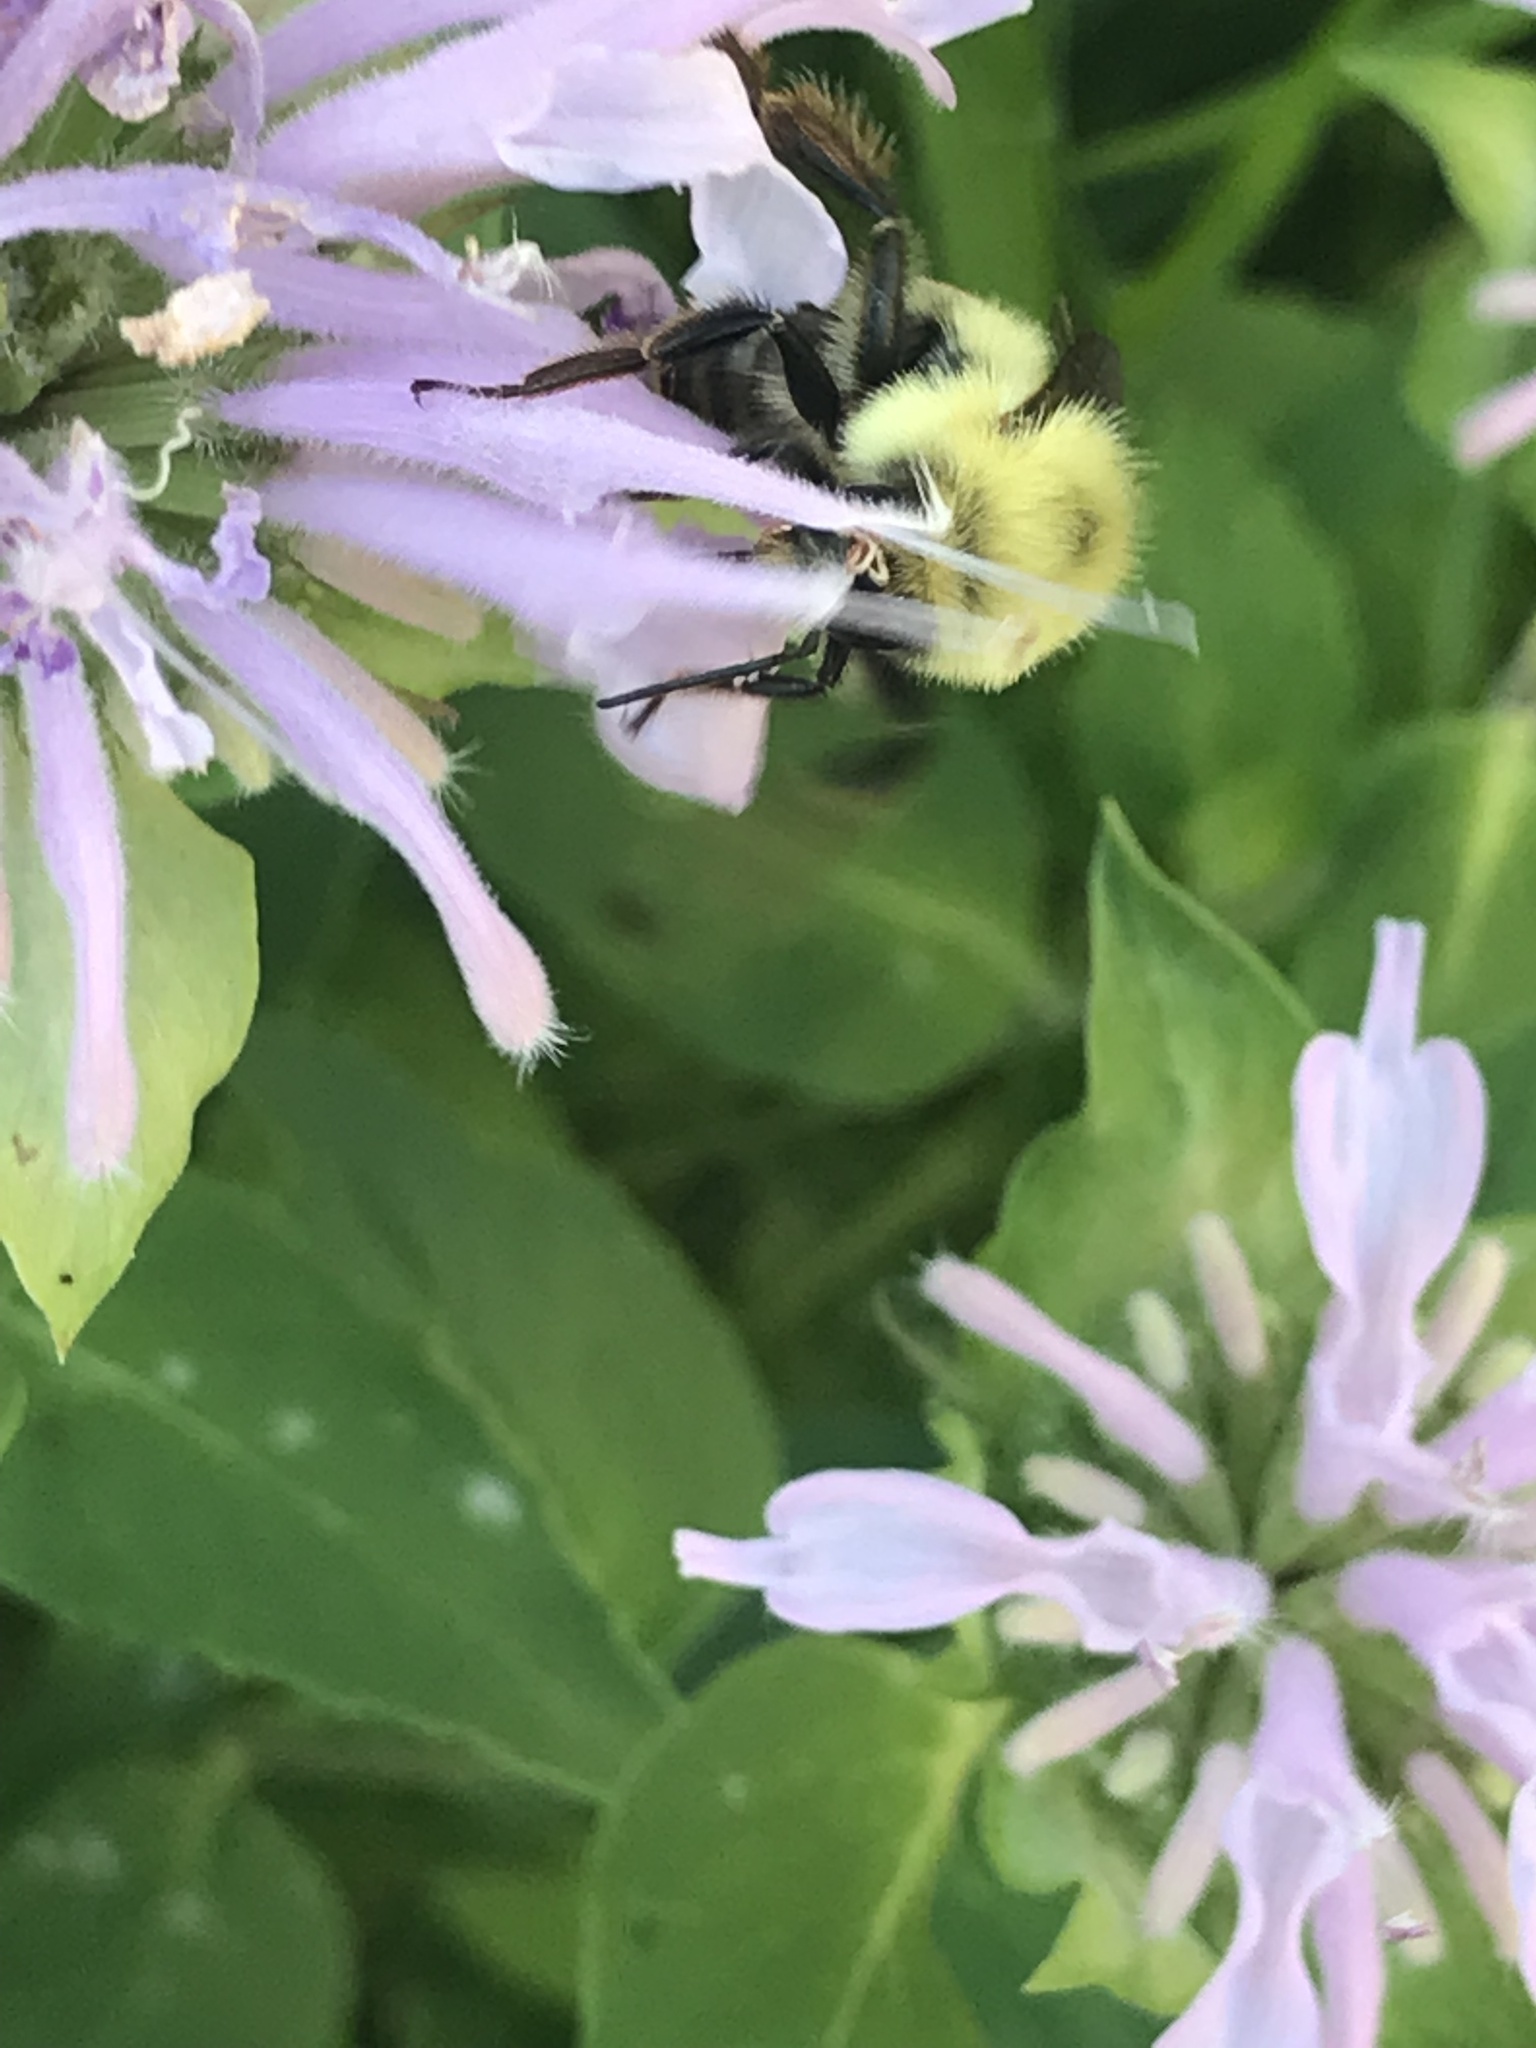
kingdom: Animalia
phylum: Arthropoda
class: Insecta
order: Hymenoptera
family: Apidae
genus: Bombus
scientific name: Bombus bimaculatus
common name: Two-spotted bumble bee
